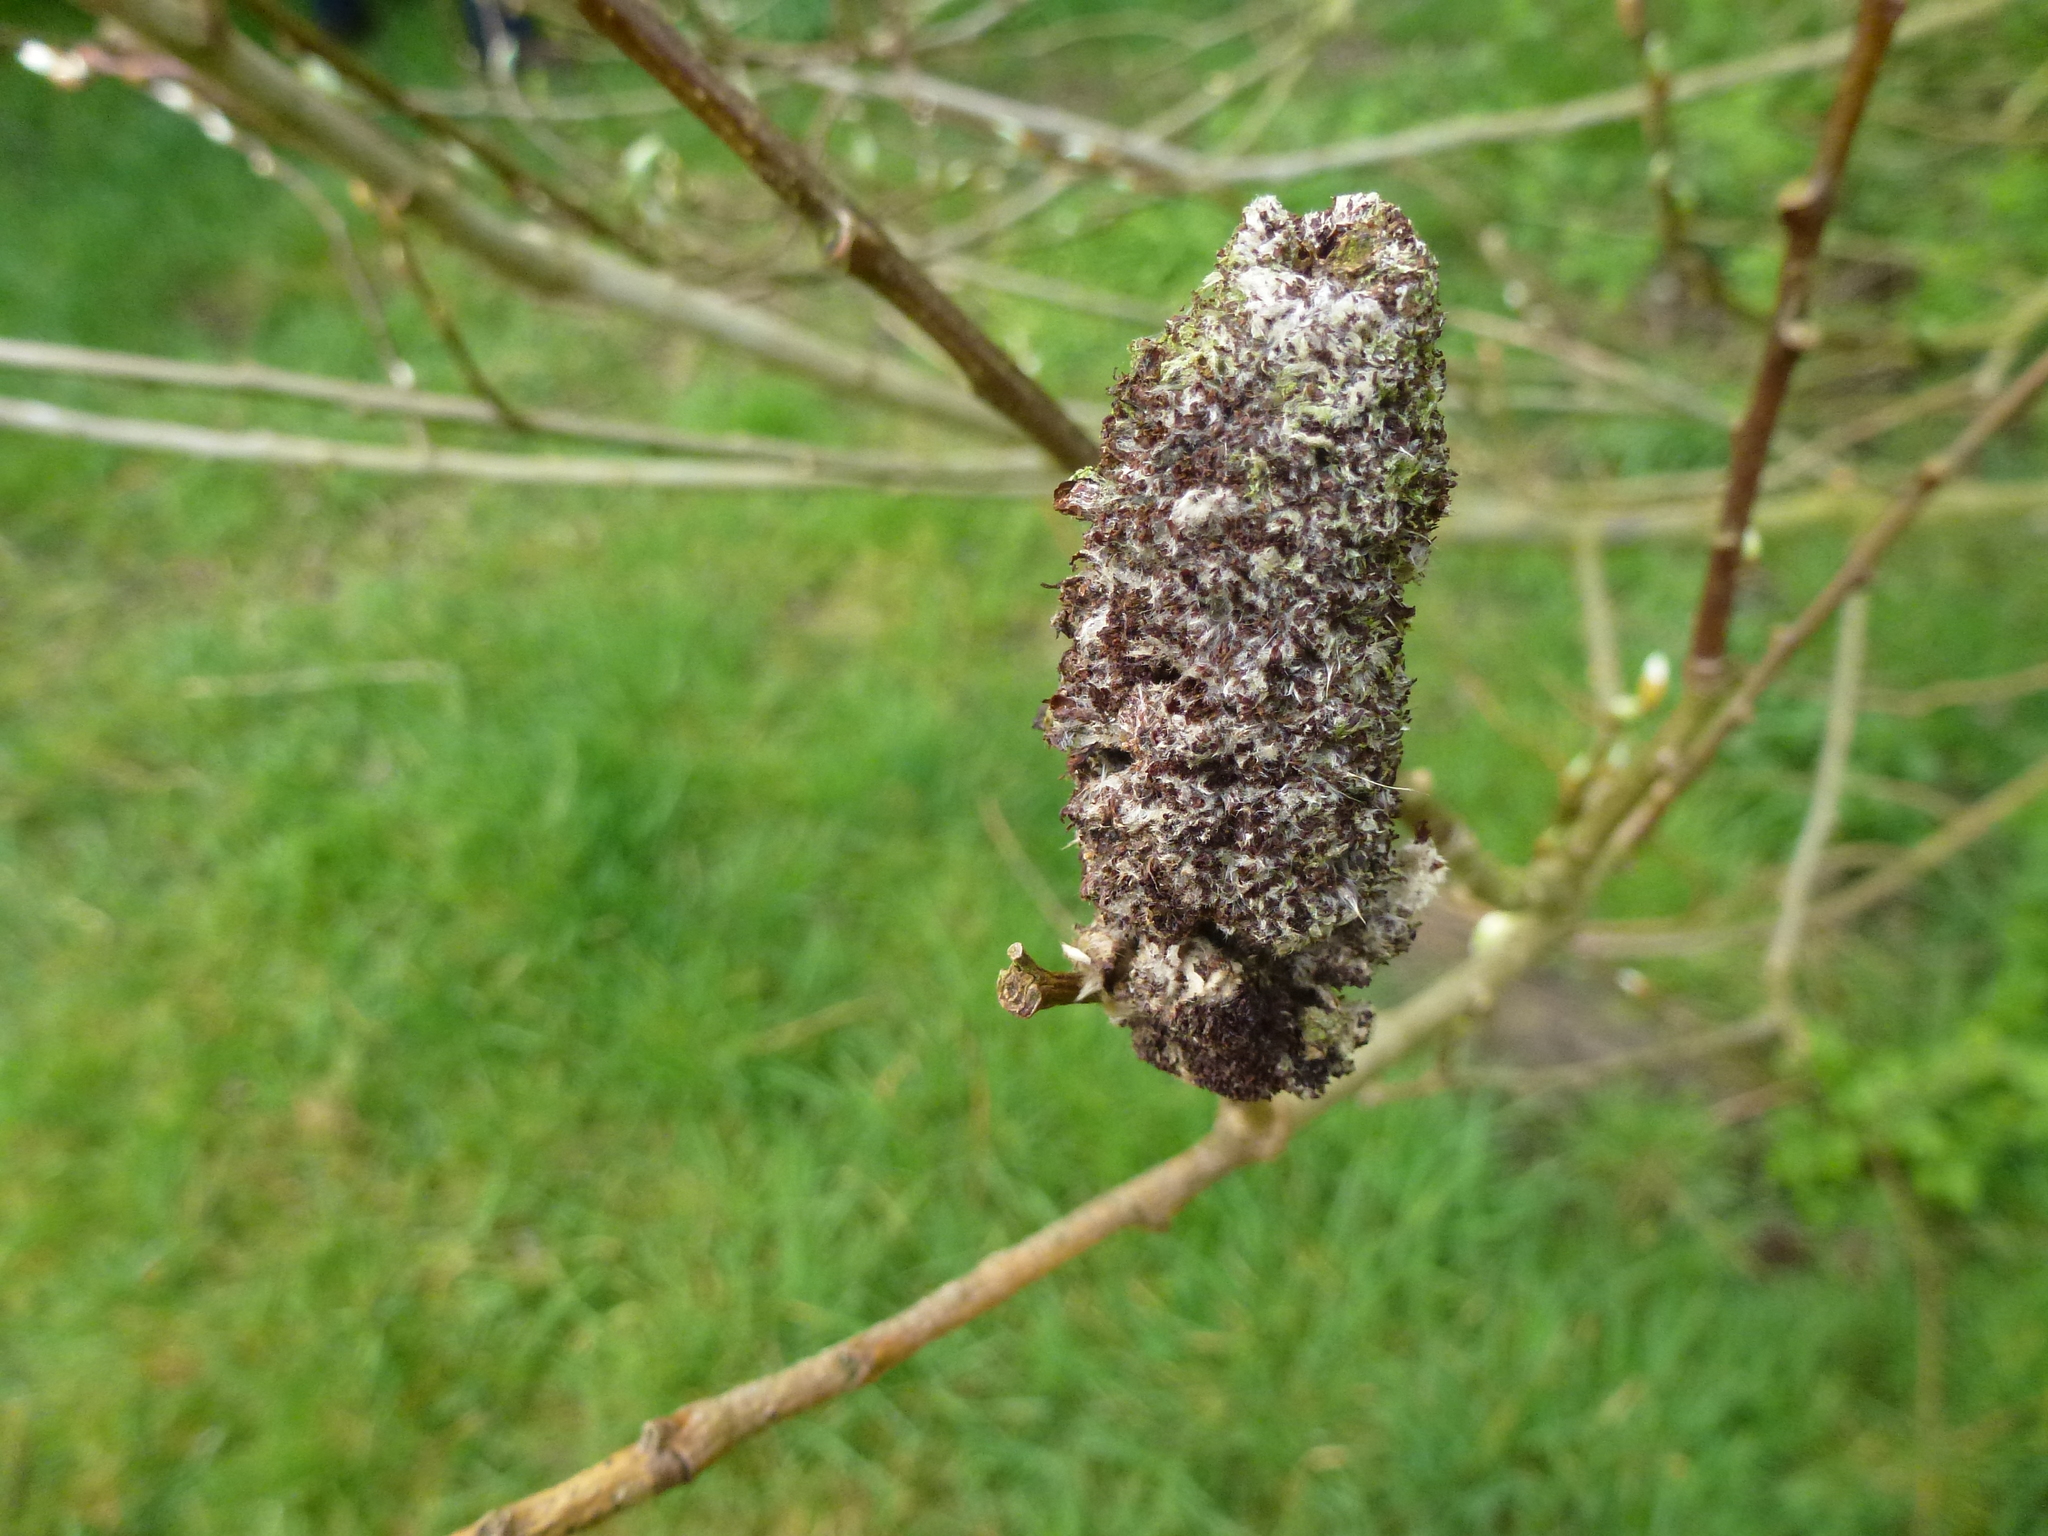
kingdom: Animalia
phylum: Arthropoda
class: Arachnida
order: Trombidiformes
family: Eriophyidae
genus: Stenacis
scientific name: Stenacis triradiatus
